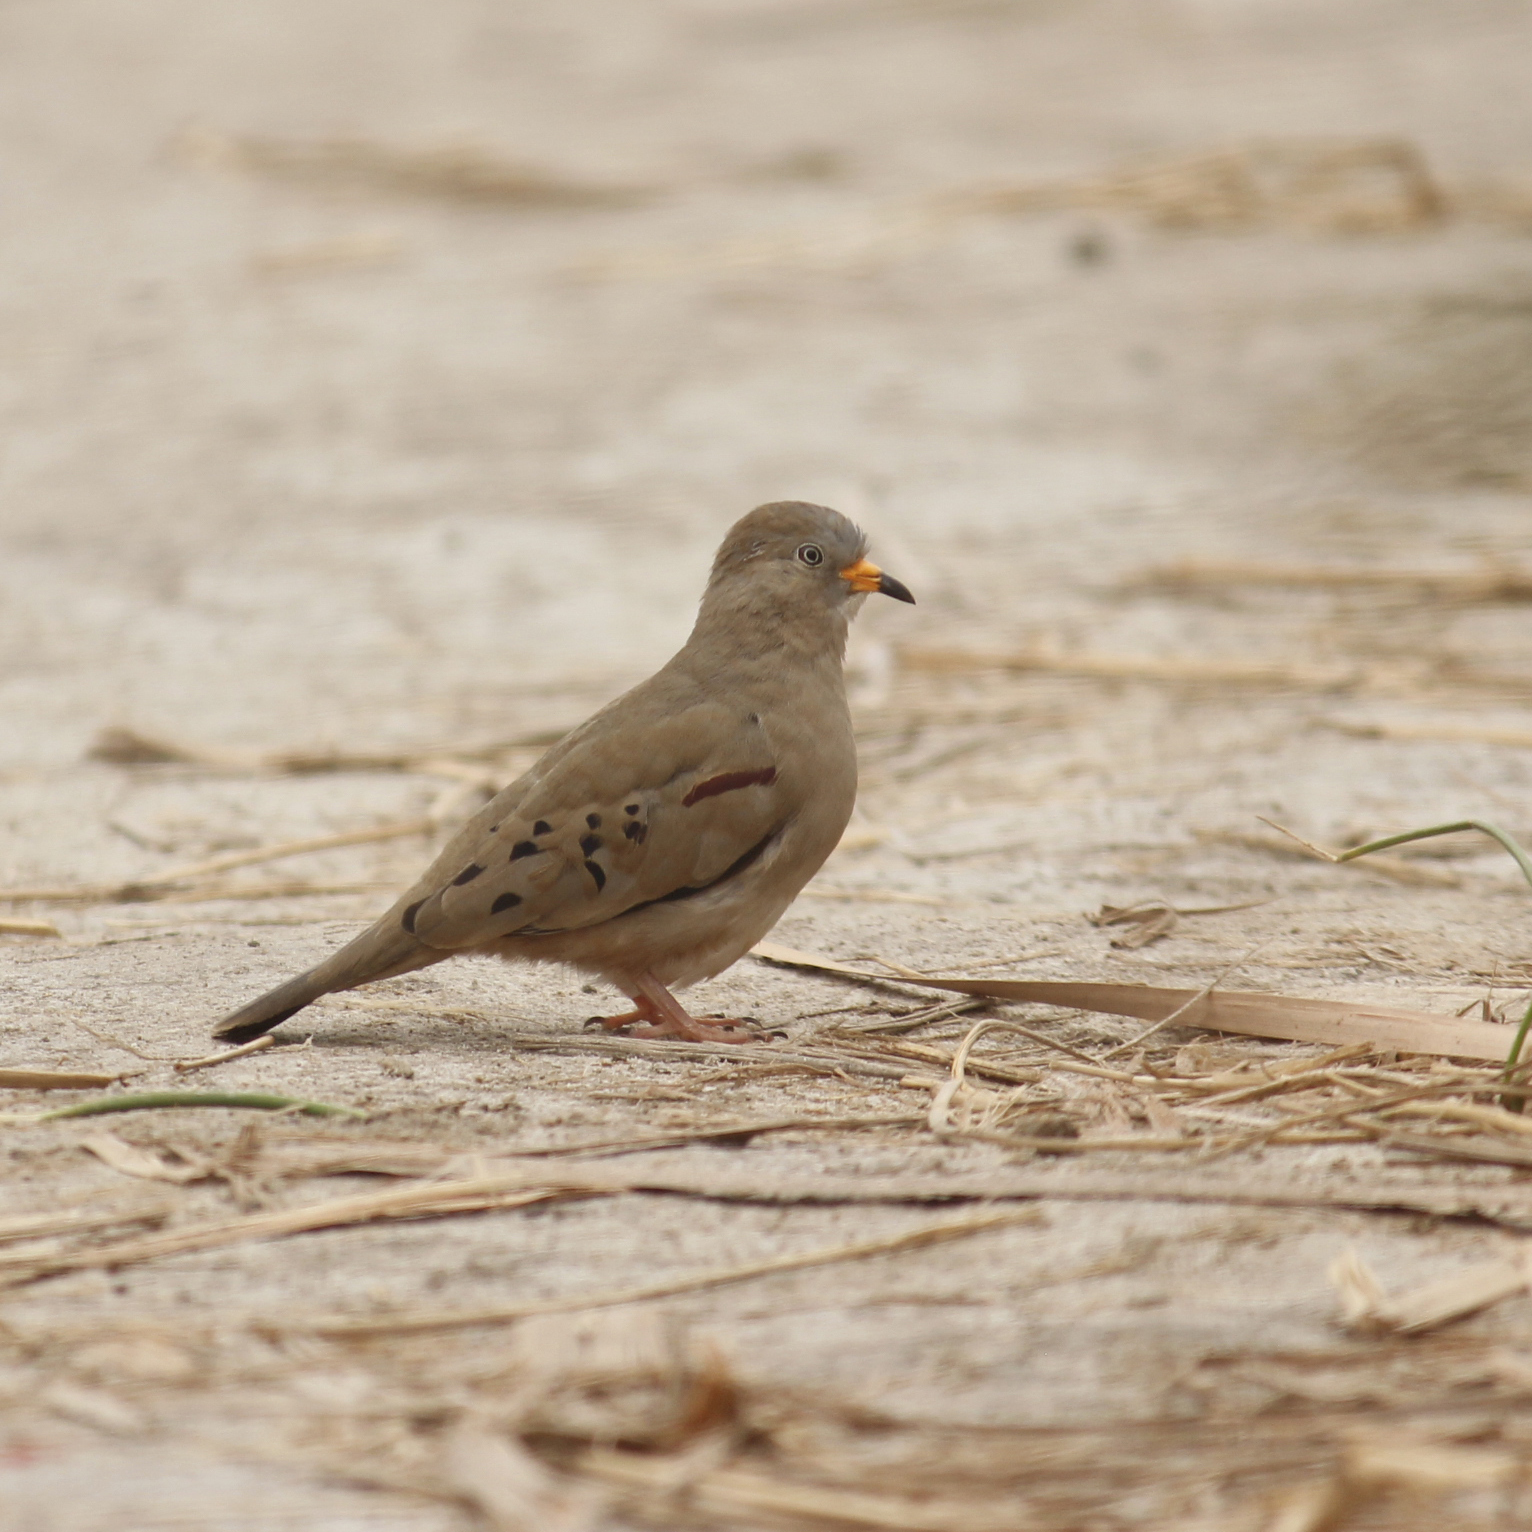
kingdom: Animalia
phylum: Chordata
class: Aves
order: Columbiformes
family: Columbidae
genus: Columbina
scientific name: Columbina cruziana
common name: Croaking ground dove
